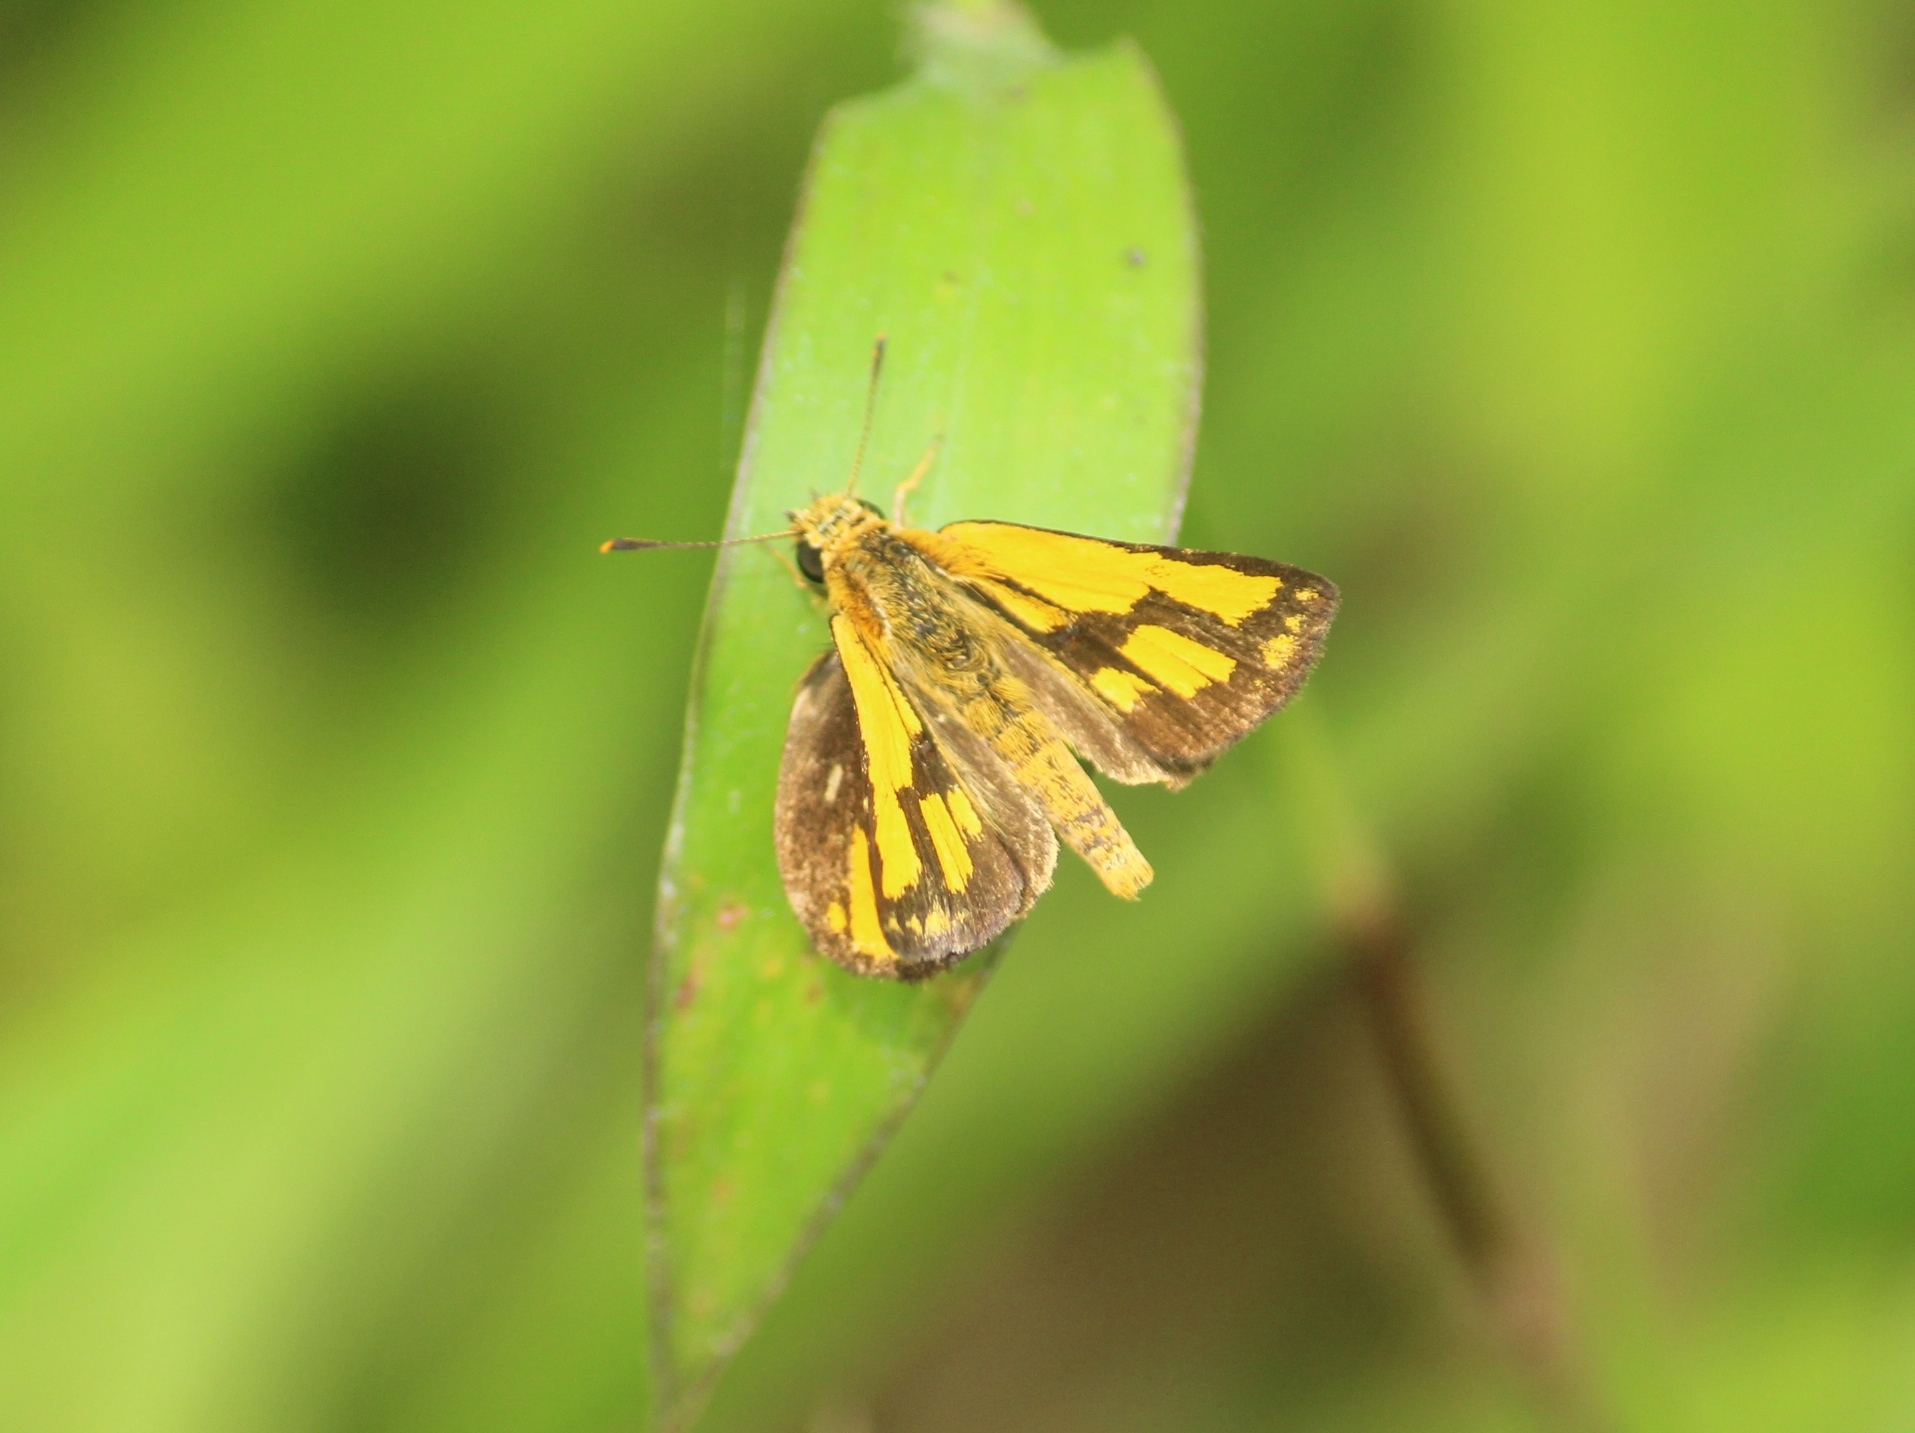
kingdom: Animalia
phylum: Arthropoda
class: Insecta
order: Lepidoptera
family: Hesperiidae
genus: Ampittia
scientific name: Ampittia dioscorides
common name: Common bush hopper
